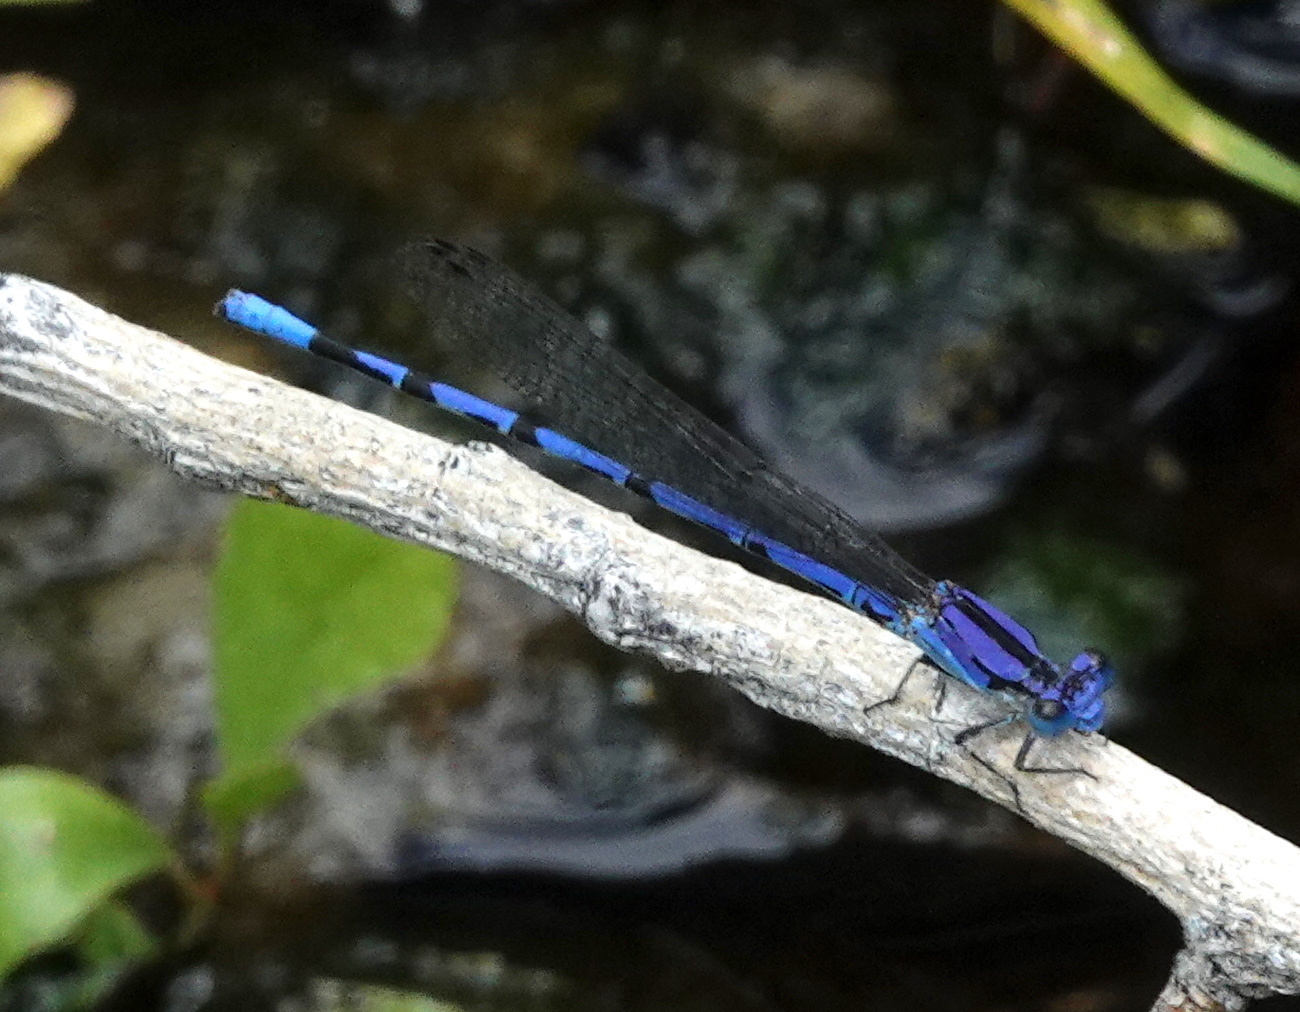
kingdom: Animalia
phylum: Arthropoda
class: Insecta
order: Odonata
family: Coenagrionidae
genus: Argia
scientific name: Argia extranea
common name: Spine-tipped dancer
